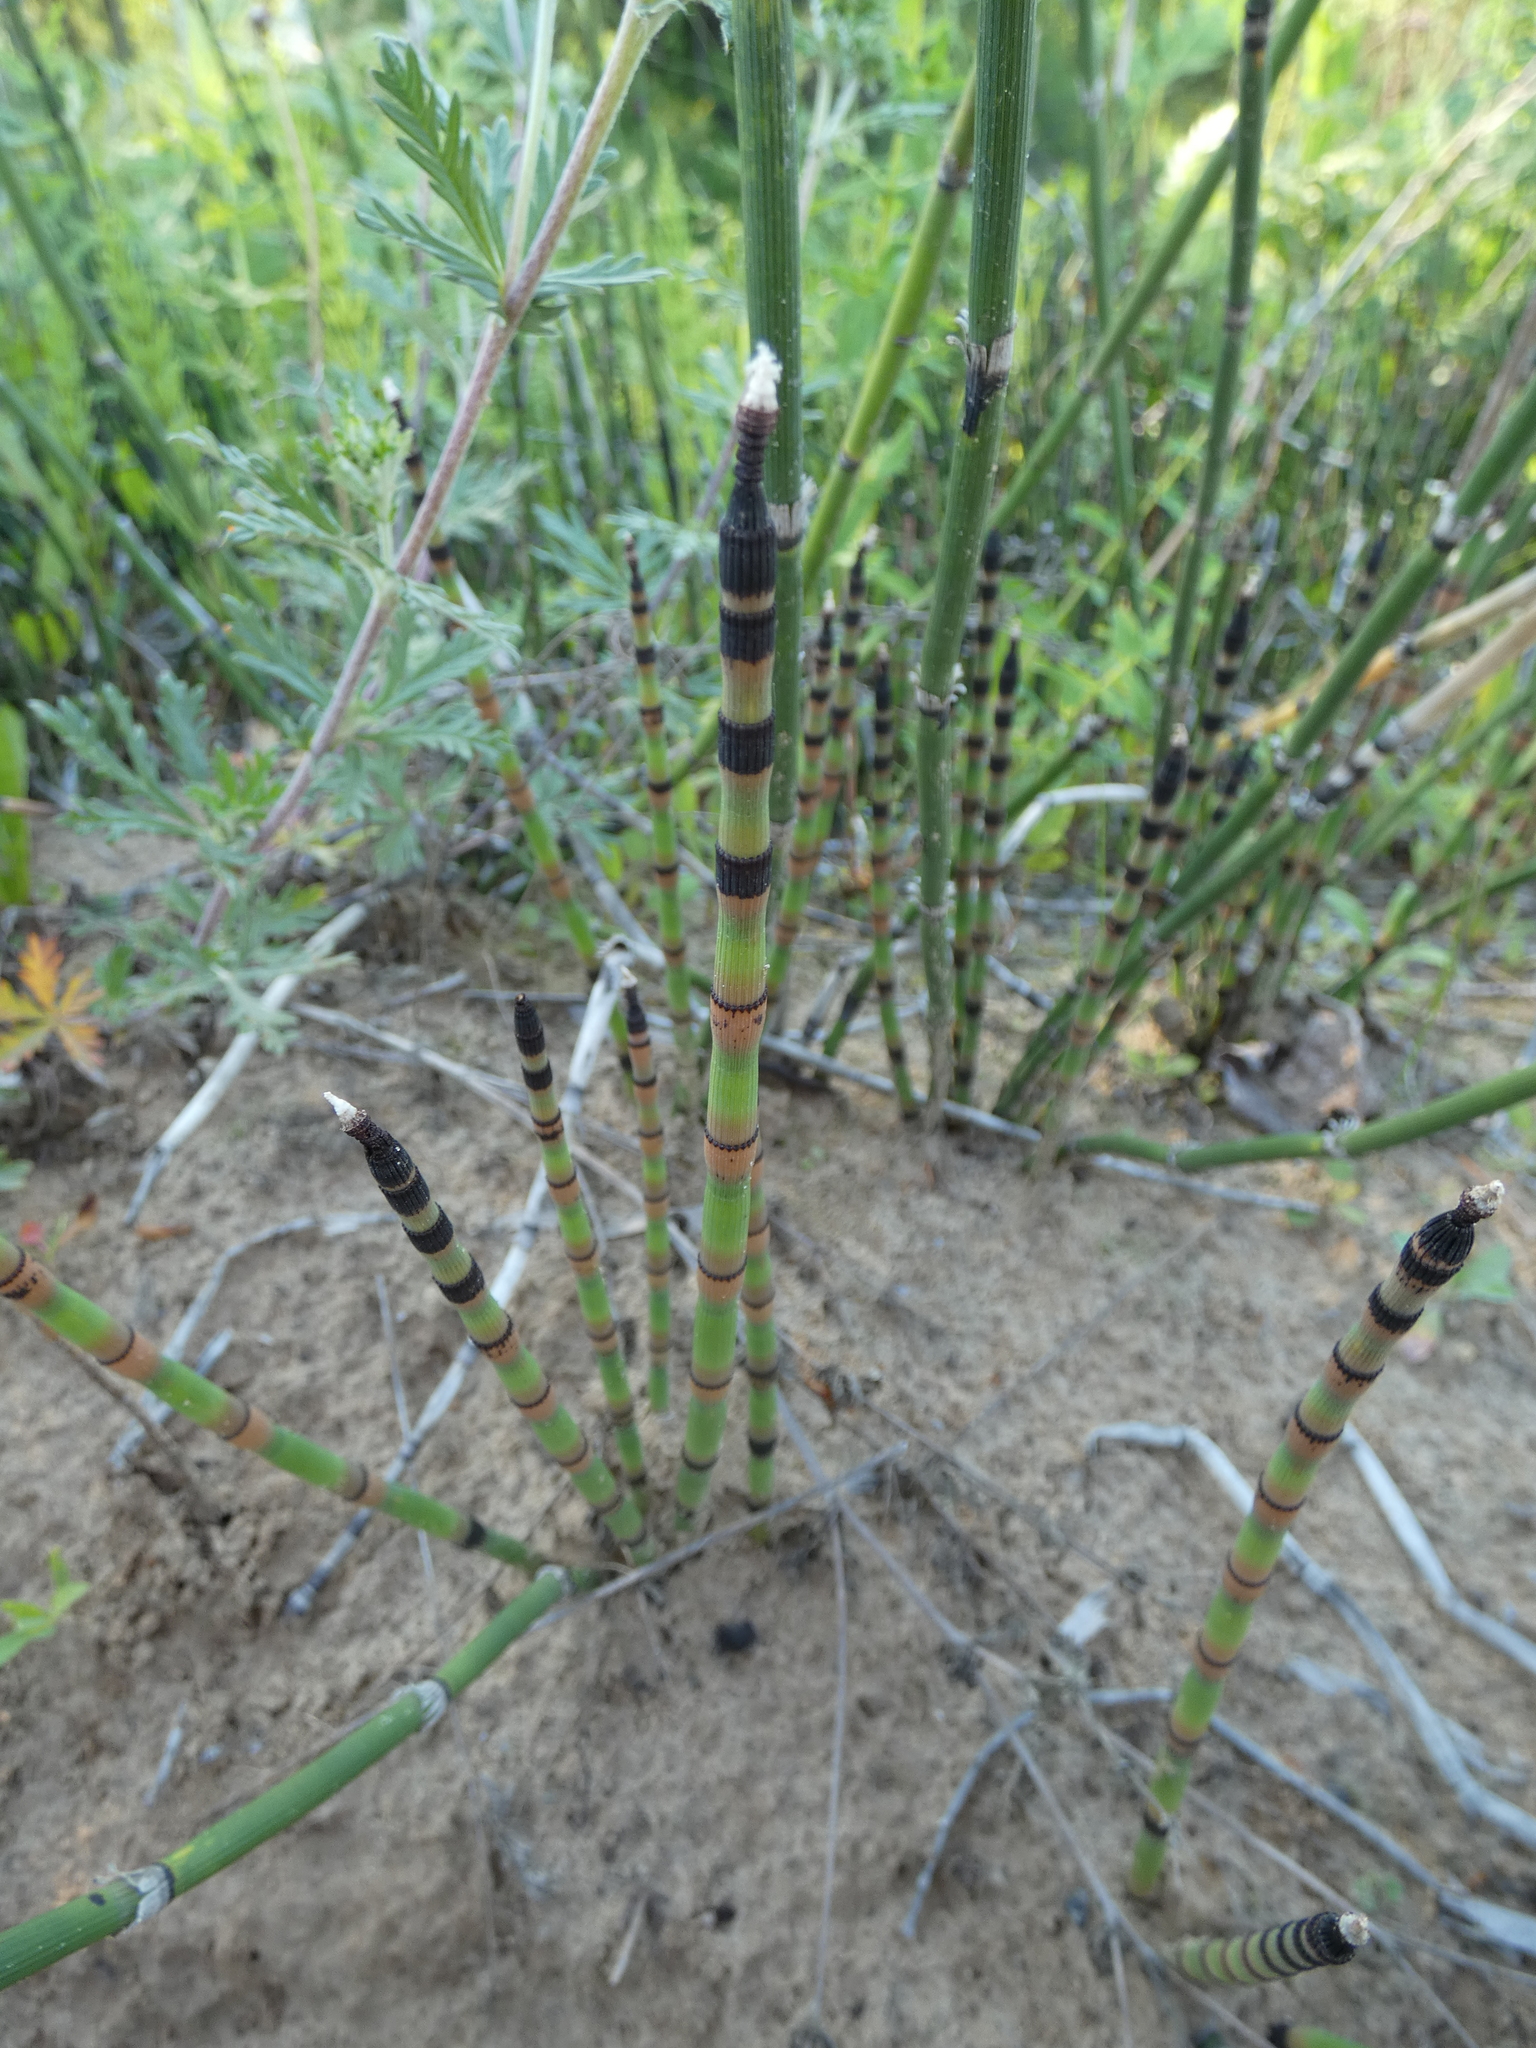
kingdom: Plantae
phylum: Tracheophyta
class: Polypodiopsida
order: Equisetales
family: Equisetaceae
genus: Equisetum
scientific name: Equisetum hyemale
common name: Rough horsetail
